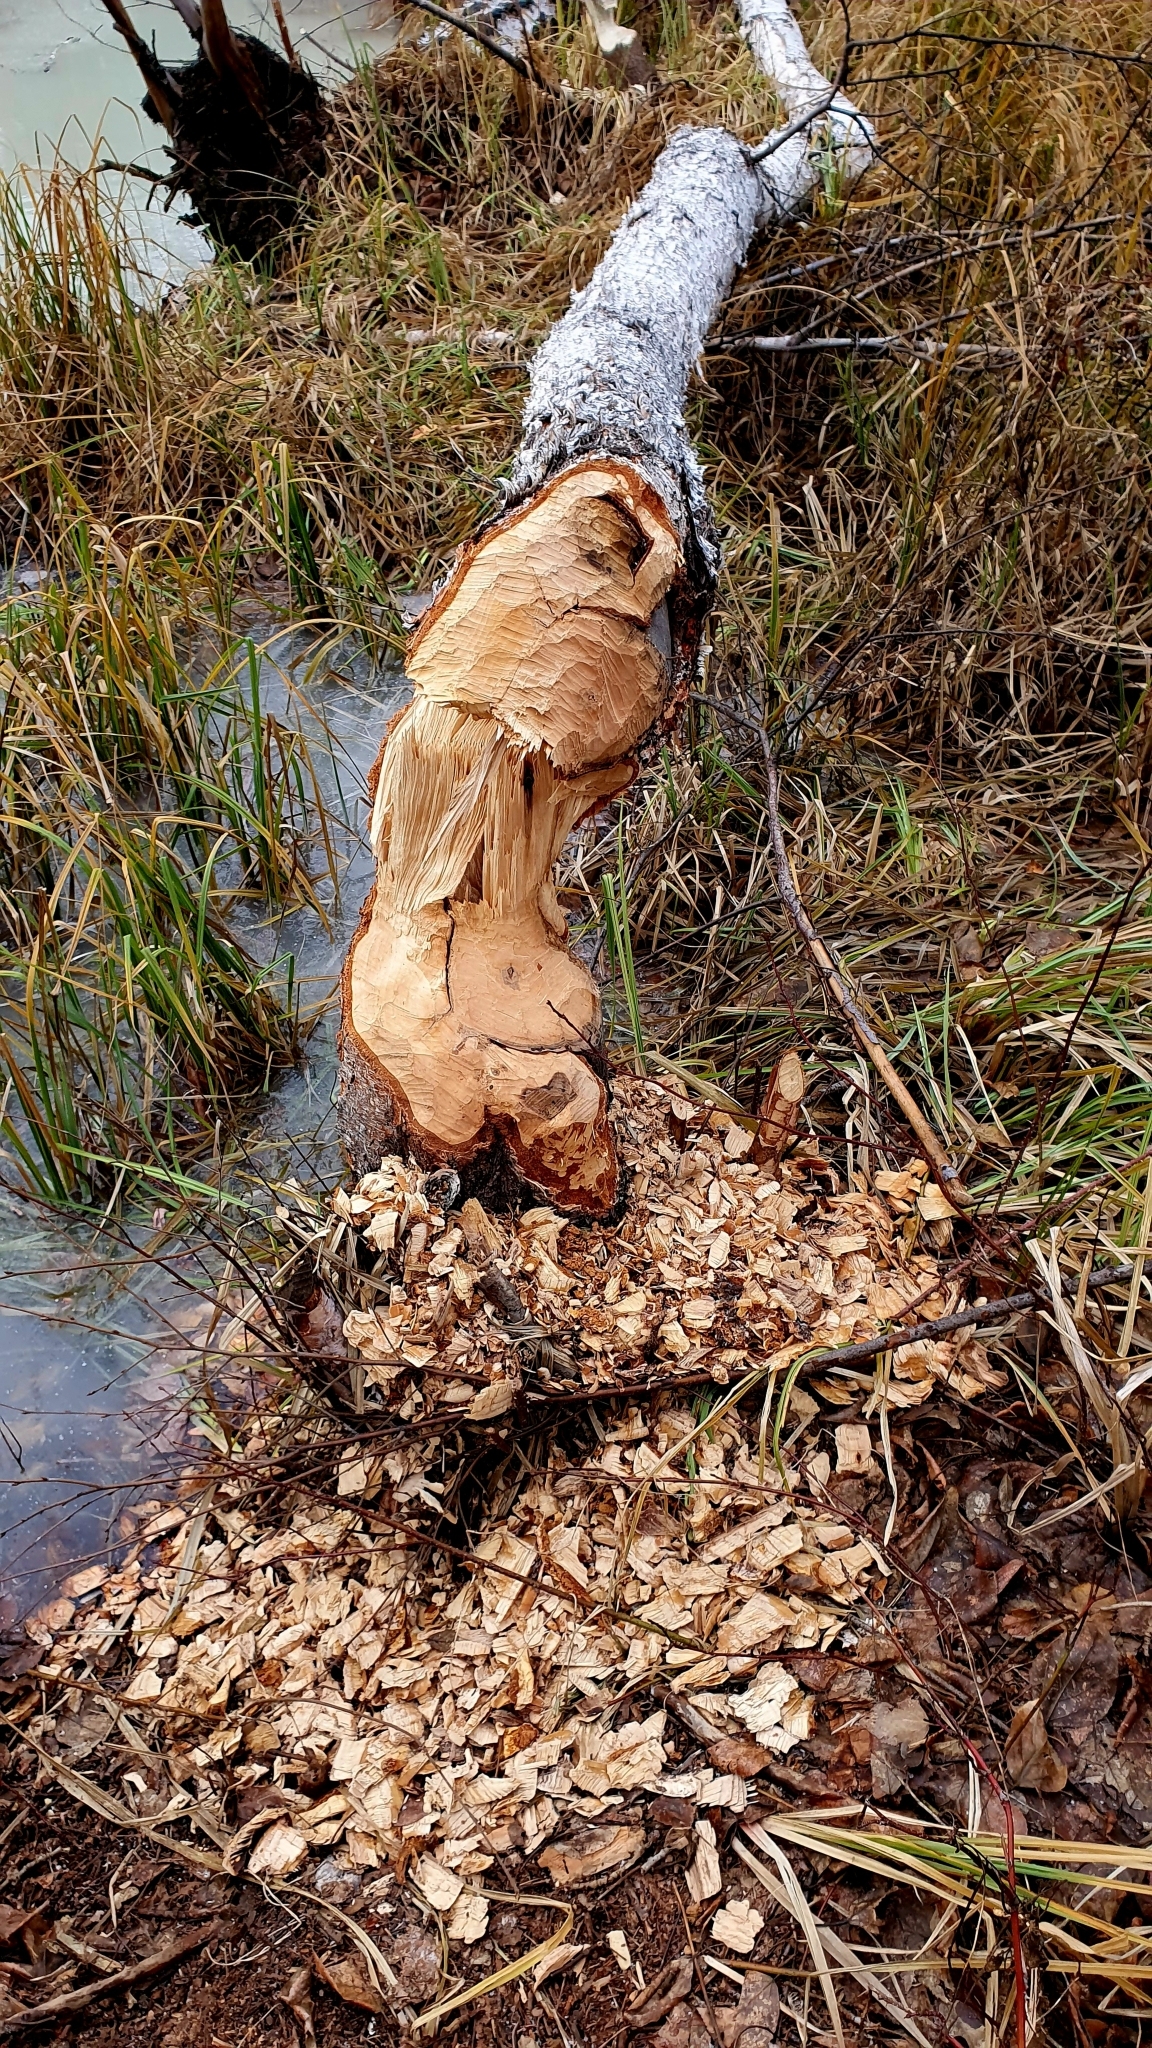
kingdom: Animalia
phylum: Chordata
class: Mammalia
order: Rodentia
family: Castoridae
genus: Castor
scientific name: Castor fiber
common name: Eurasian beaver
